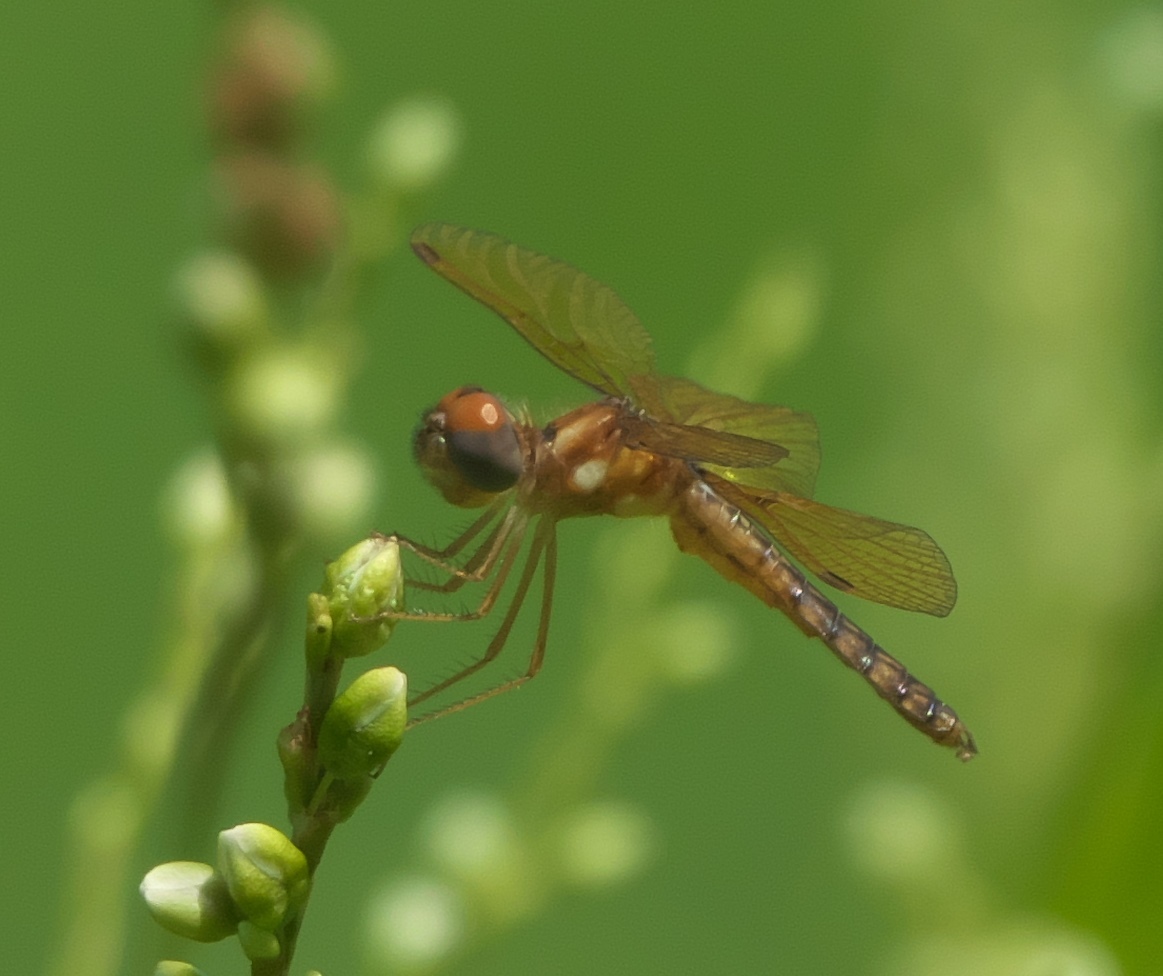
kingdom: Animalia
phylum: Arthropoda
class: Insecta
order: Odonata
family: Libellulidae
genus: Perithemis
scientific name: Perithemis tenera
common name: Eastern amberwing
